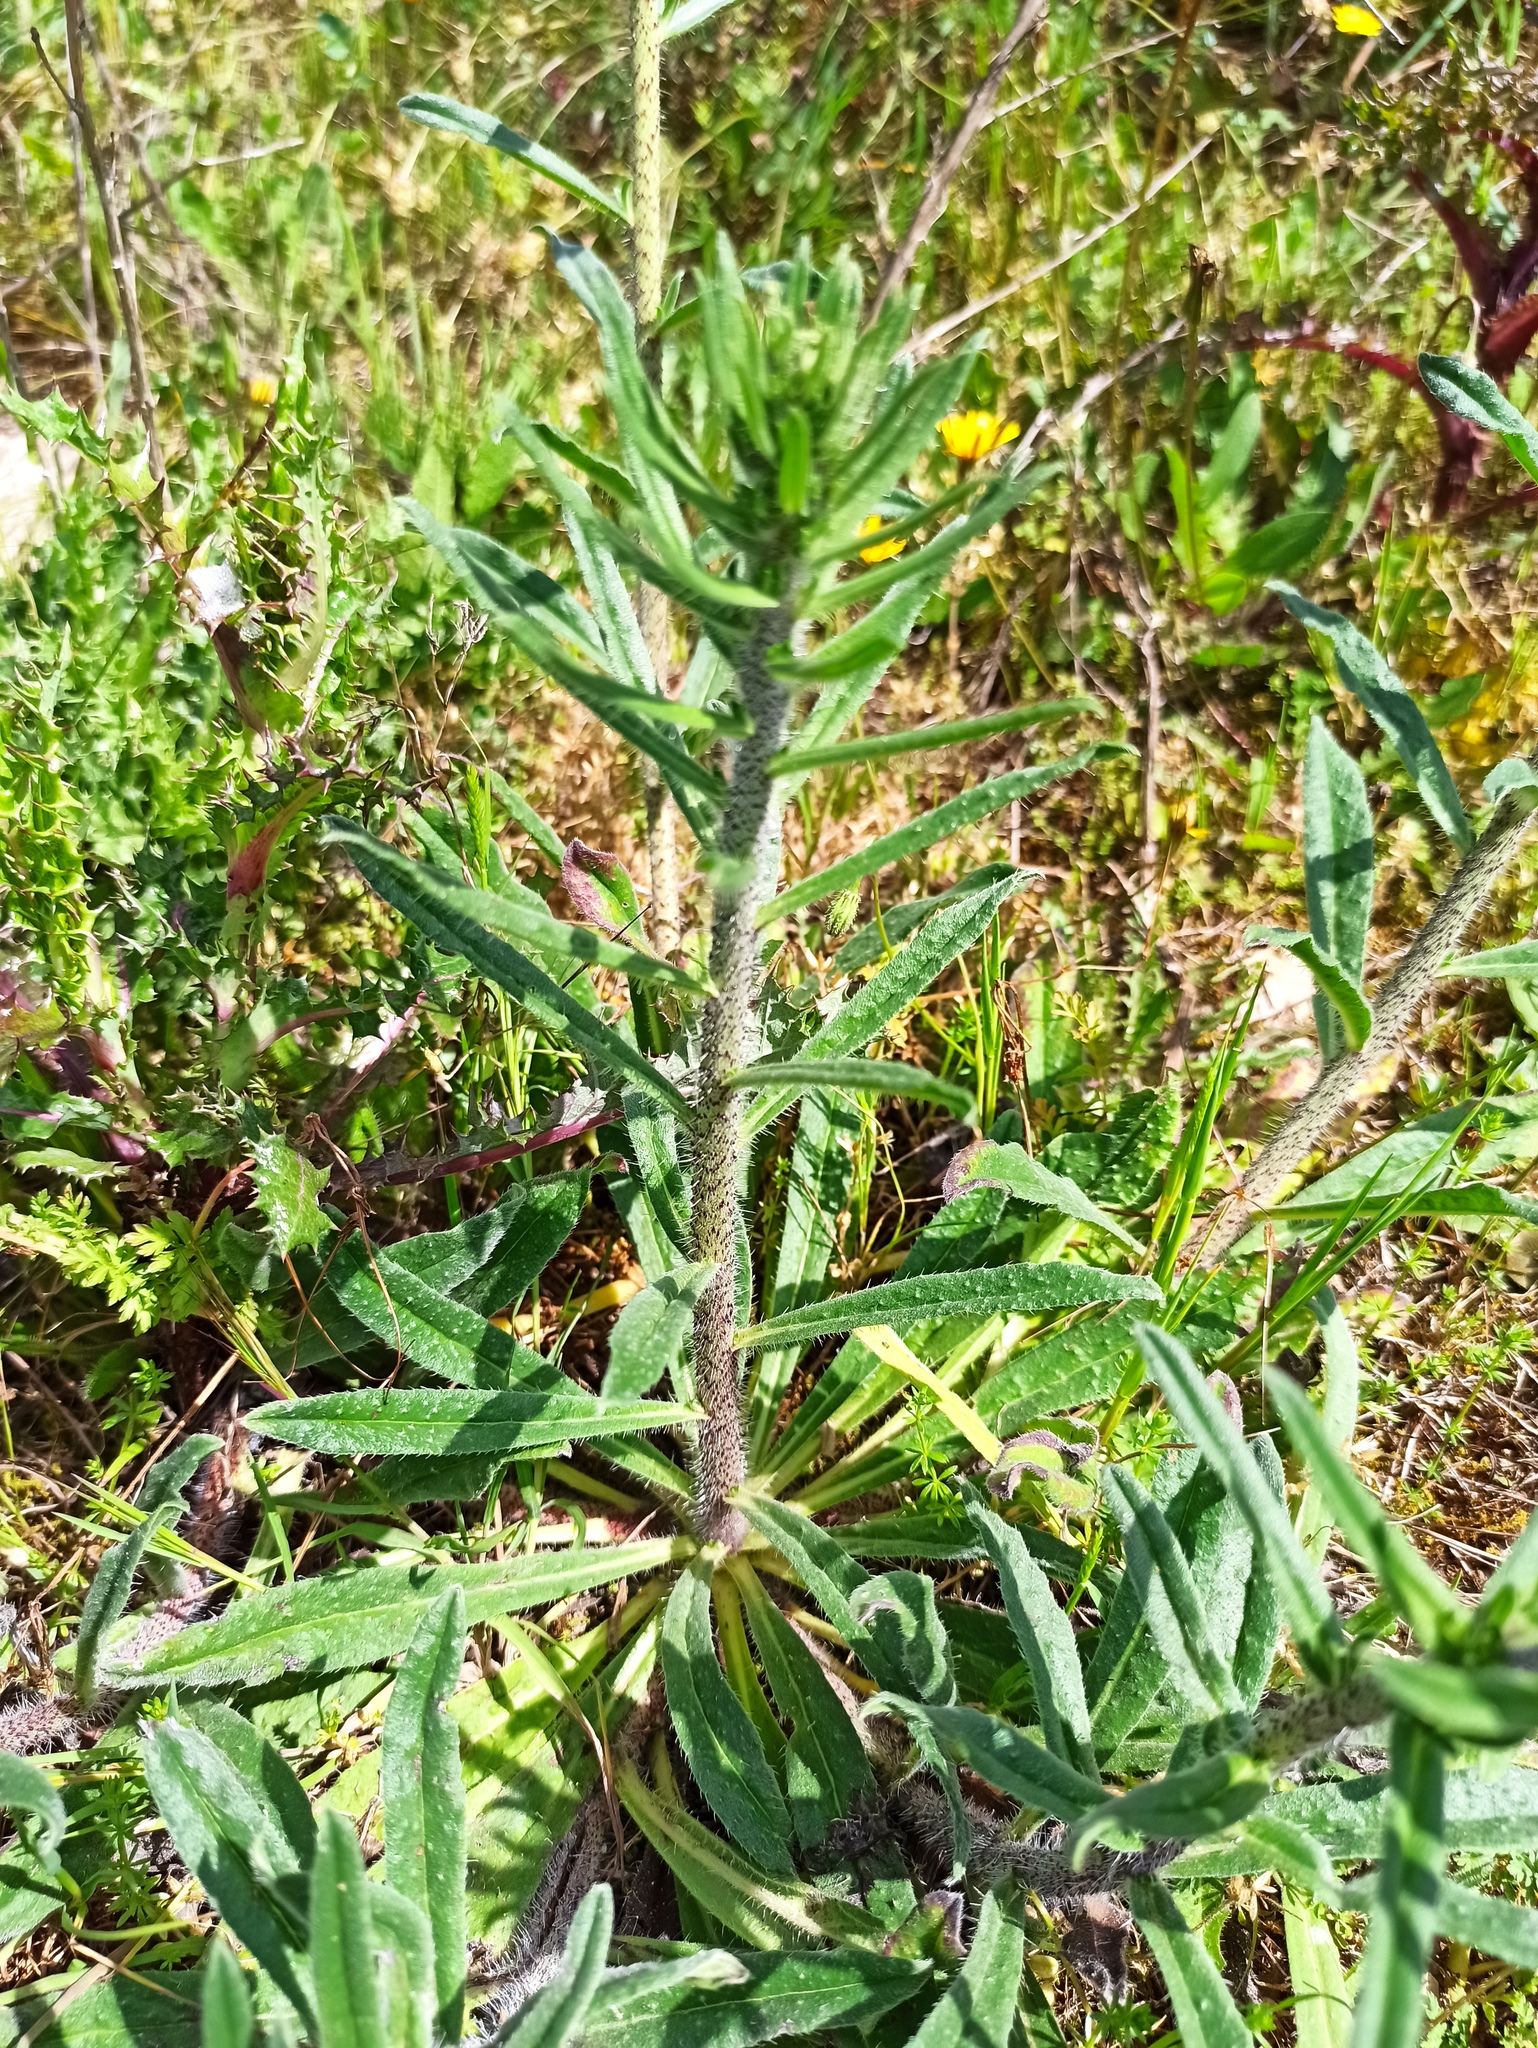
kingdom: Plantae
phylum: Tracheophyta
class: Magnoliopsida
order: Boraginales
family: Boraginaceae
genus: Echium
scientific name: Echium tuberculatum
